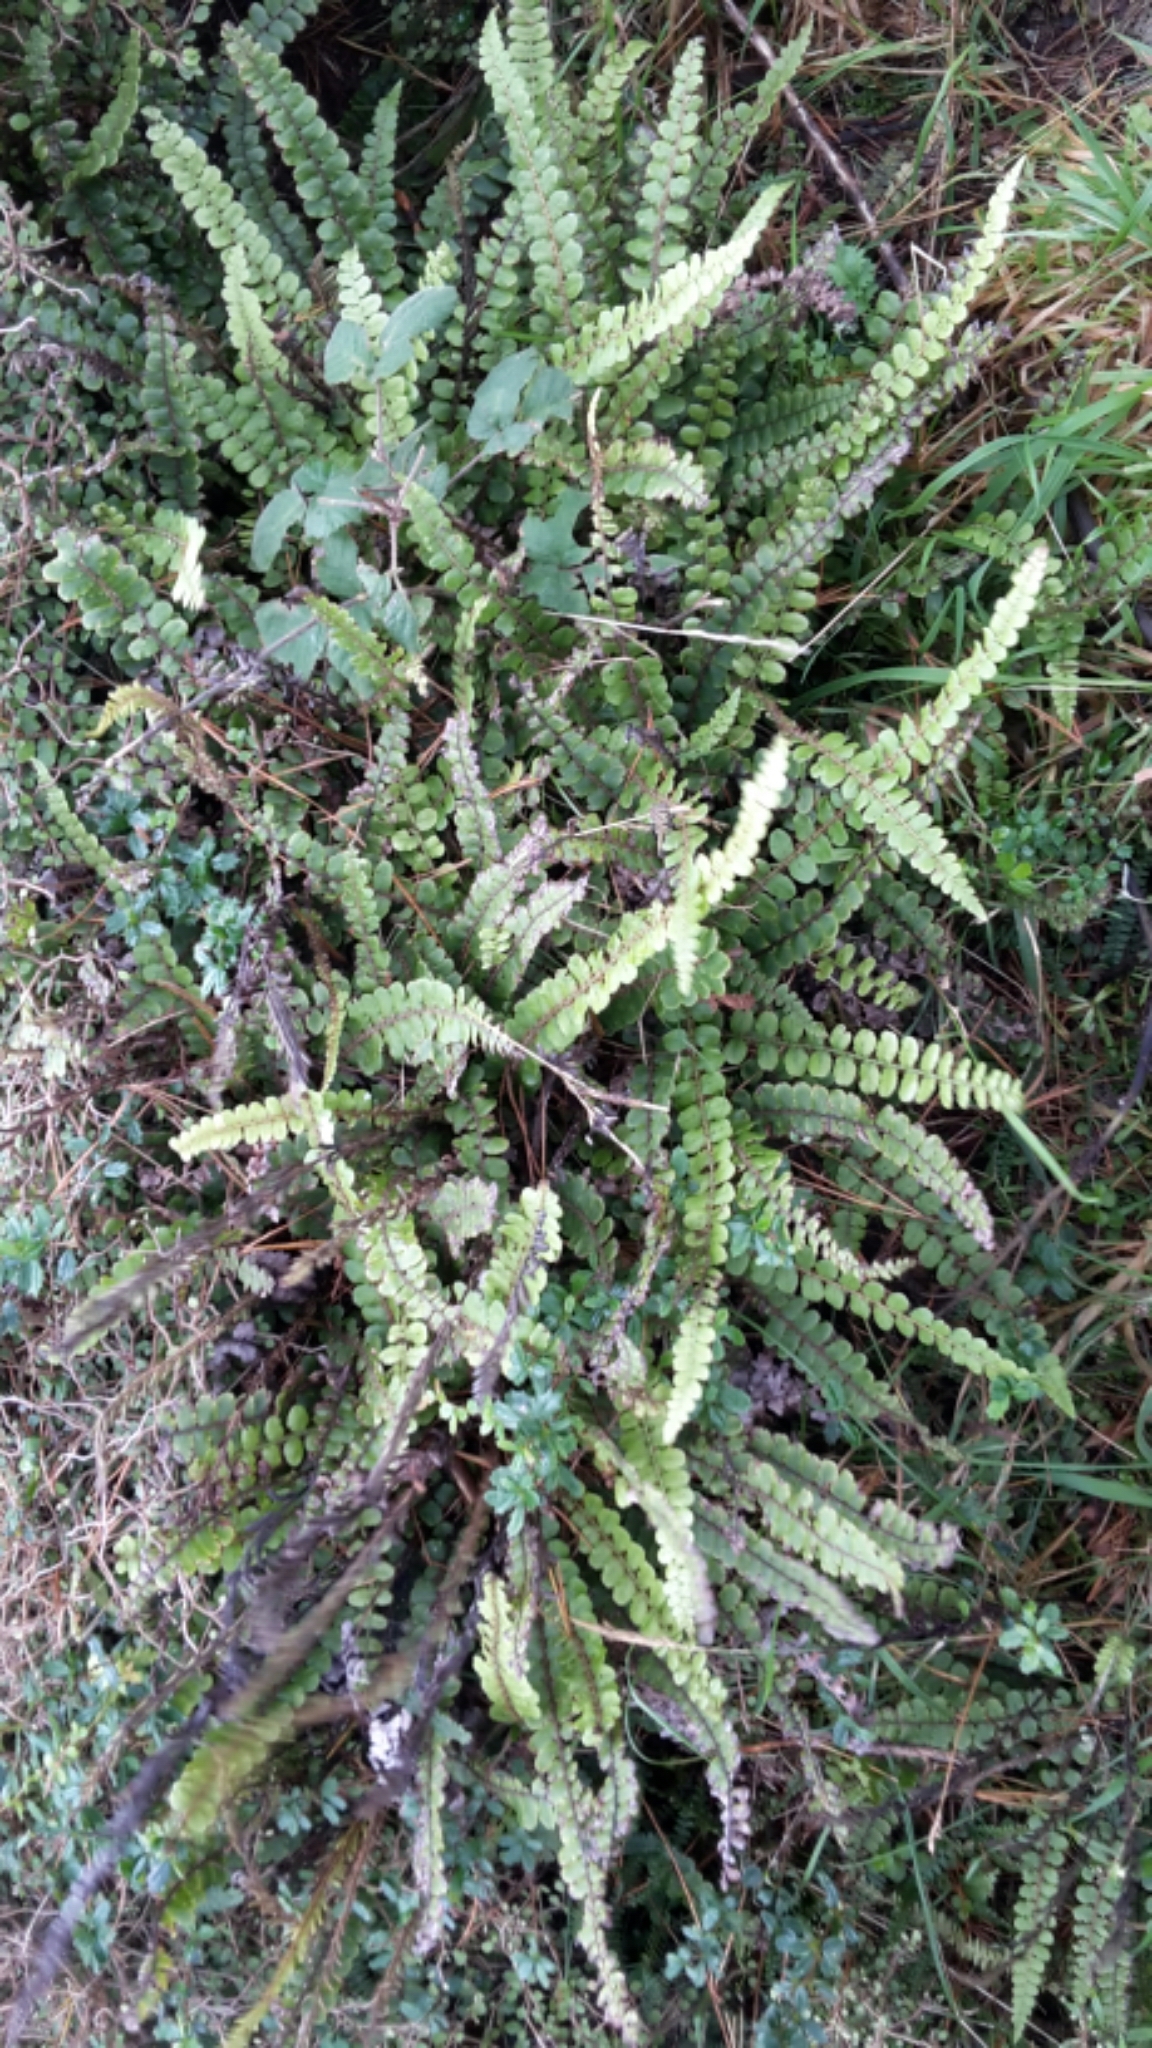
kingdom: Plantae
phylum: Tracheophyta
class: Polypodiopsida
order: Polypodiales
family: Blechnaceae
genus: Cranfillia
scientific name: Cranfillia fluviatilis
